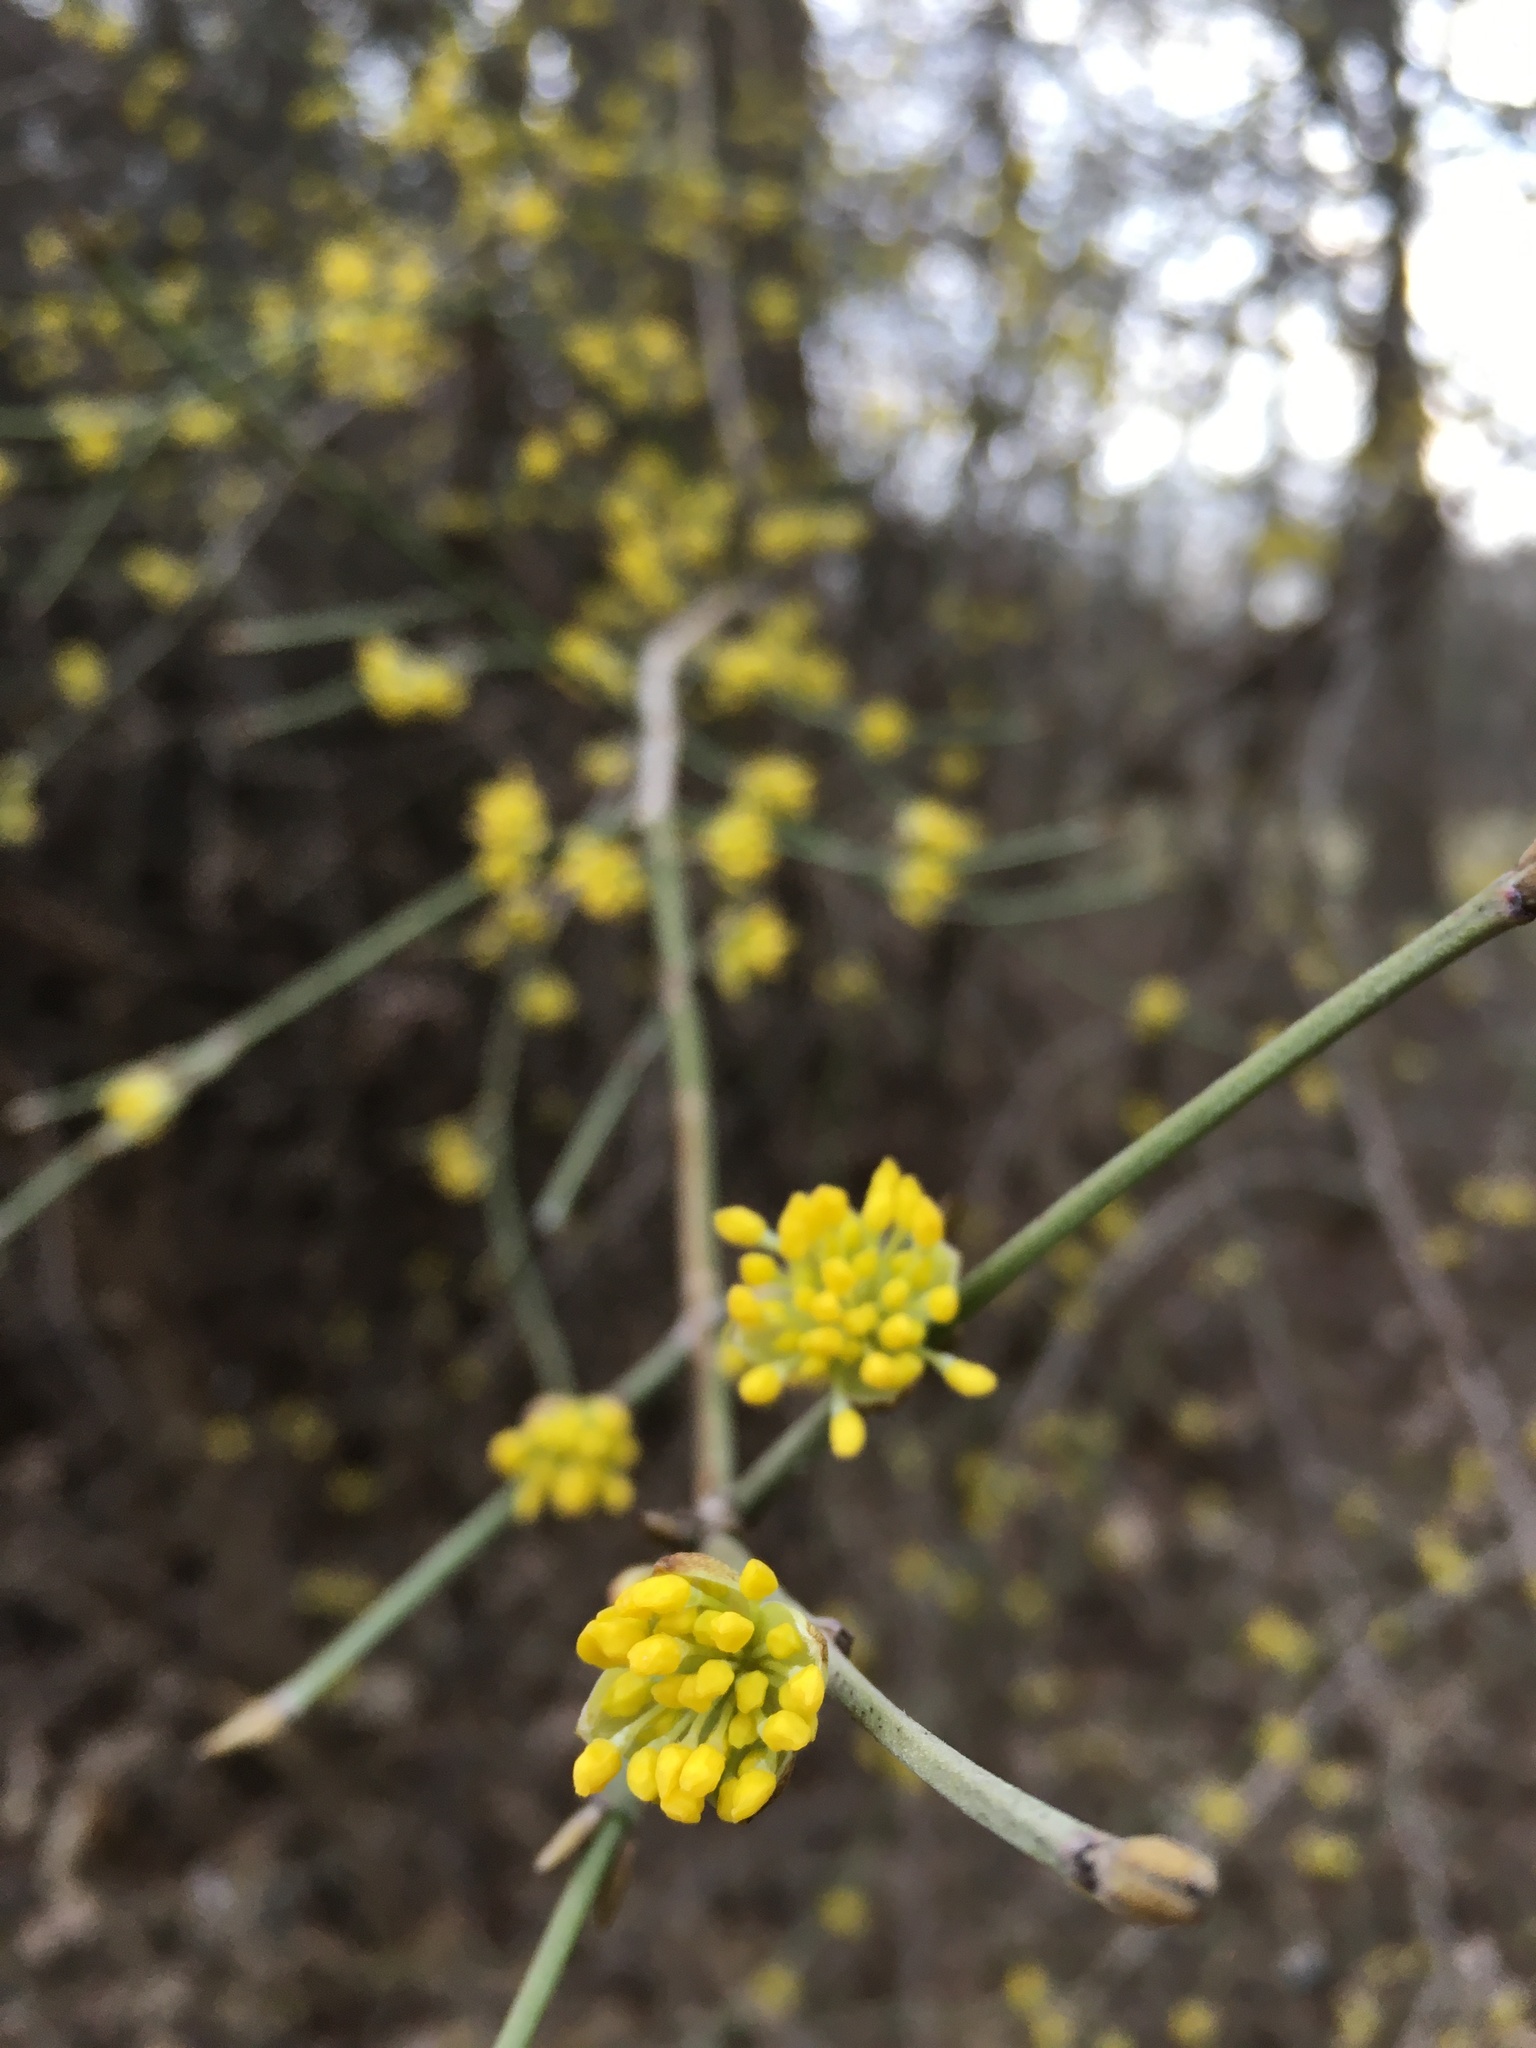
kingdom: Plantae
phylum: Tracheophyta
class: Magnoliopsida
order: Cornales
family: Cornaceae
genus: Cornus
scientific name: Cornus mas
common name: Cornelian-cherry
